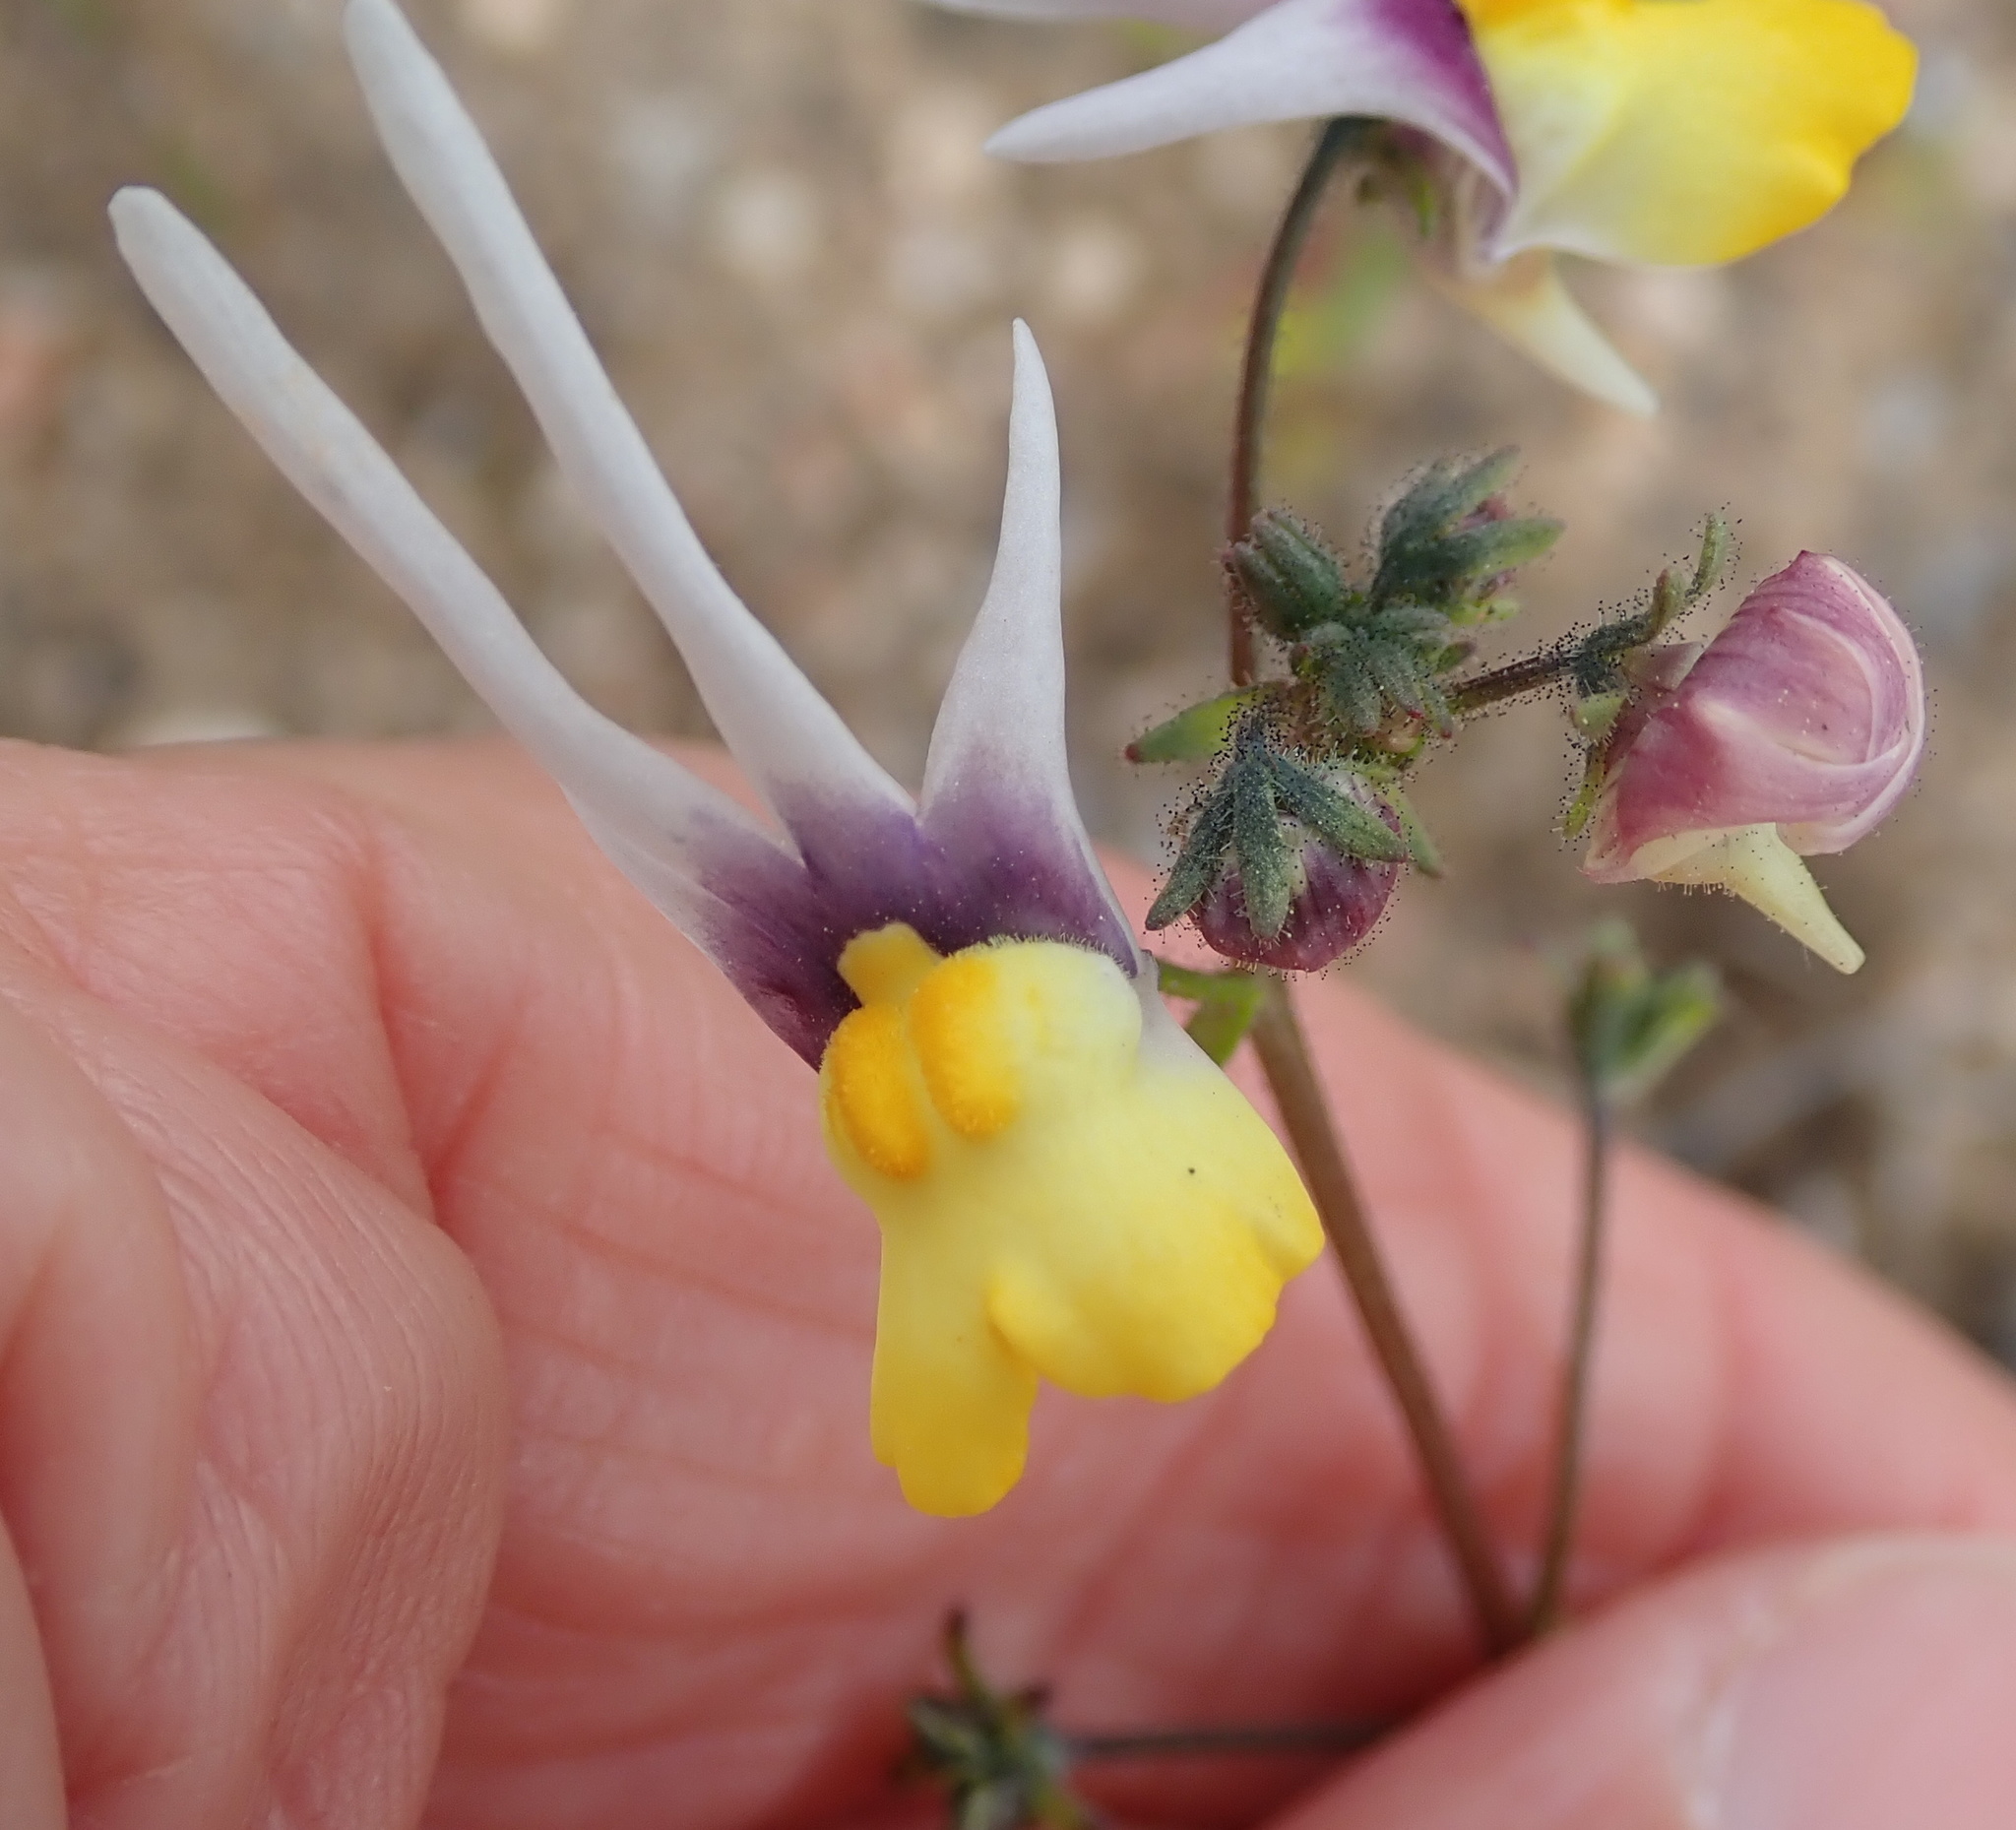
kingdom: Plantae
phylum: Tracheophyta
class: Magnoliopsida
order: Lamiales
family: Scrophulariaceae
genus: Nemesia
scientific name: Nemesia cheiranthus
